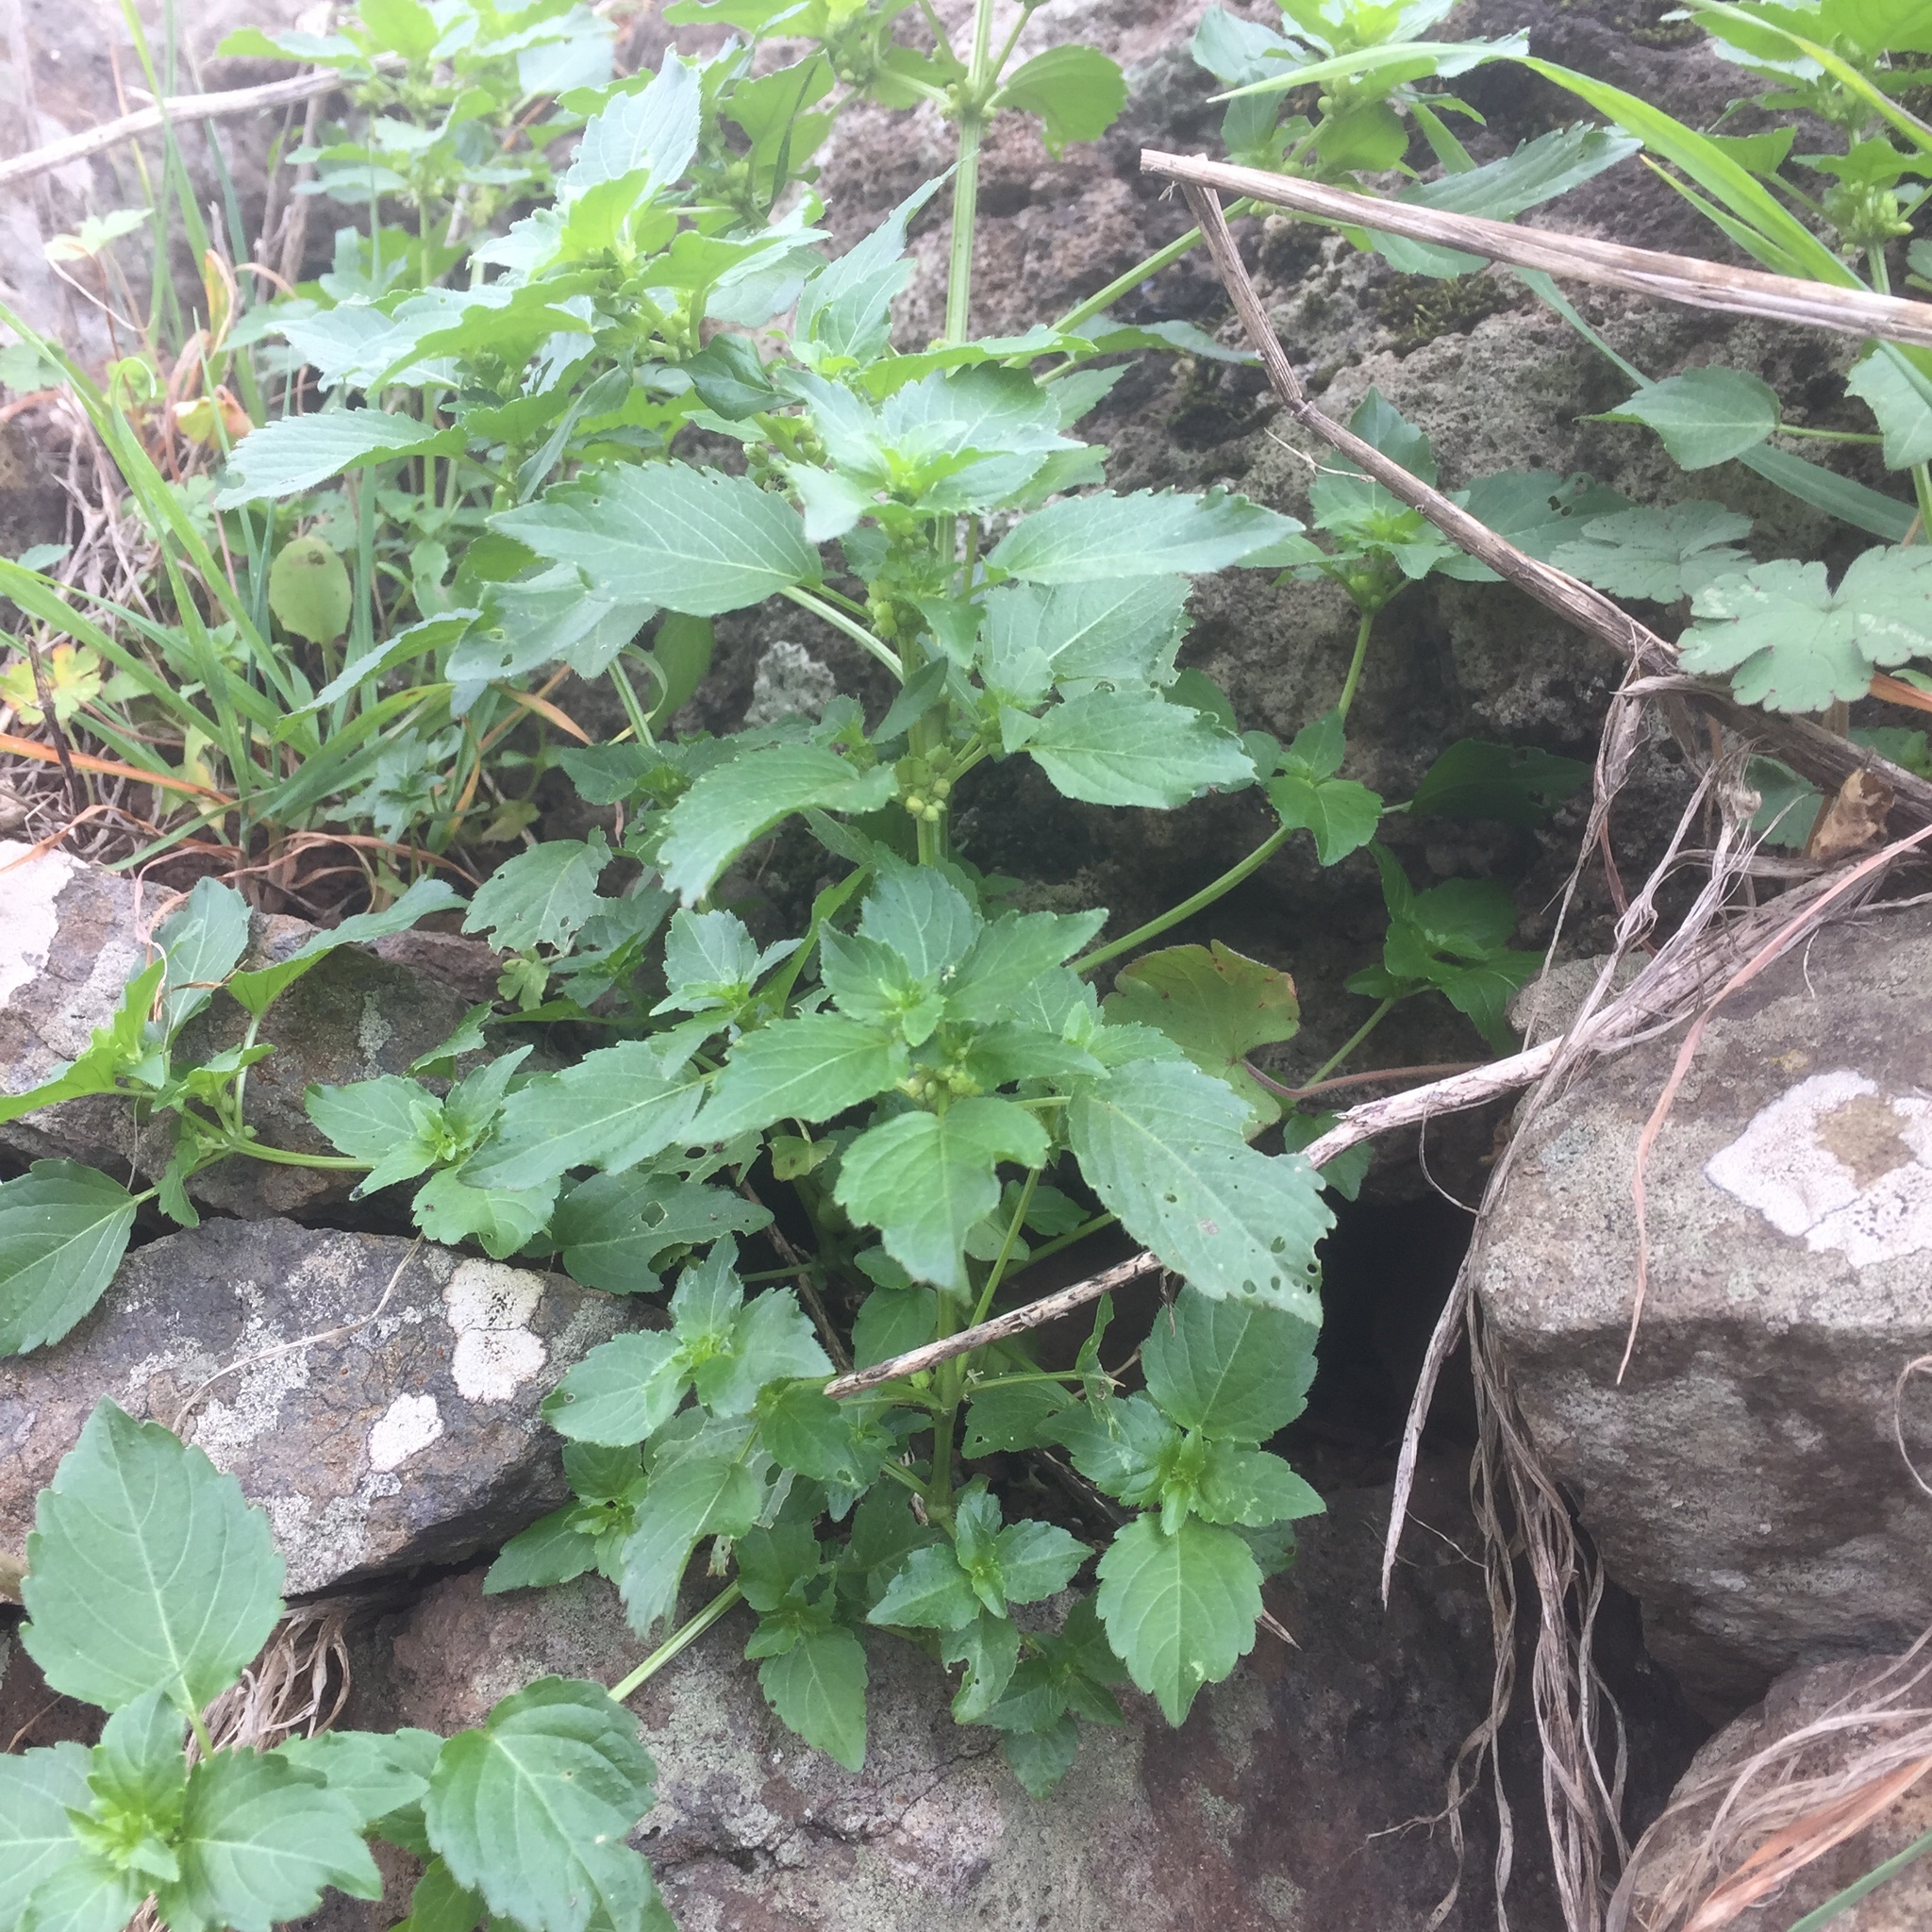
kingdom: Plantae
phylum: Tracheophyta
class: Magnoliopsida
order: Malpighiales
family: Euphorbiaceae
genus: Mercurialis
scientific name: Mercurialis annua
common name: Annual mercury
